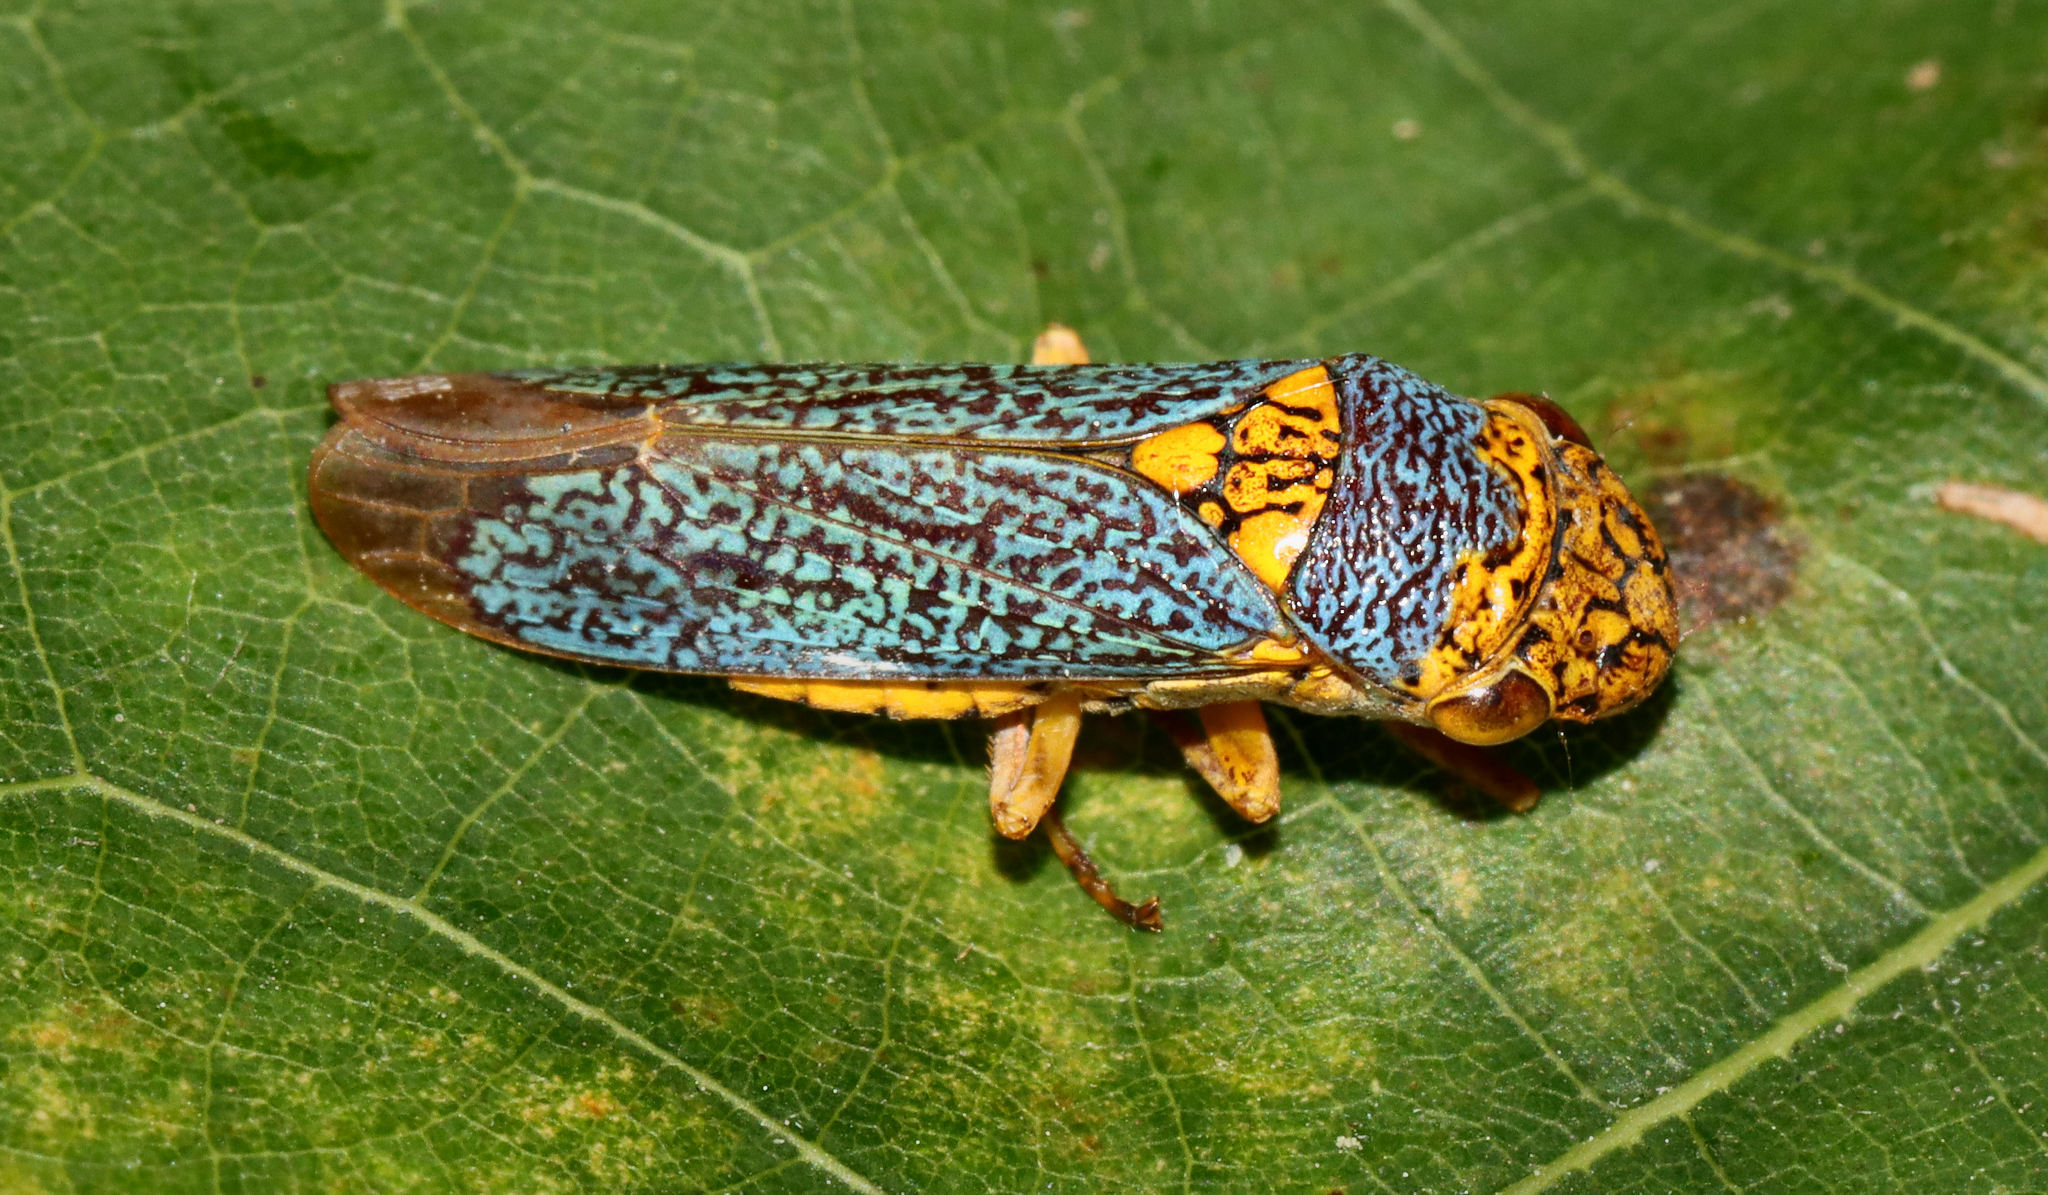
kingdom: Animalia
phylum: Arthropoda
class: Insecta
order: Hemiptera
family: Cicadellidae
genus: Oncometopia
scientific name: Oncometopia orbona
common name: Broad-headed sharpshooter
